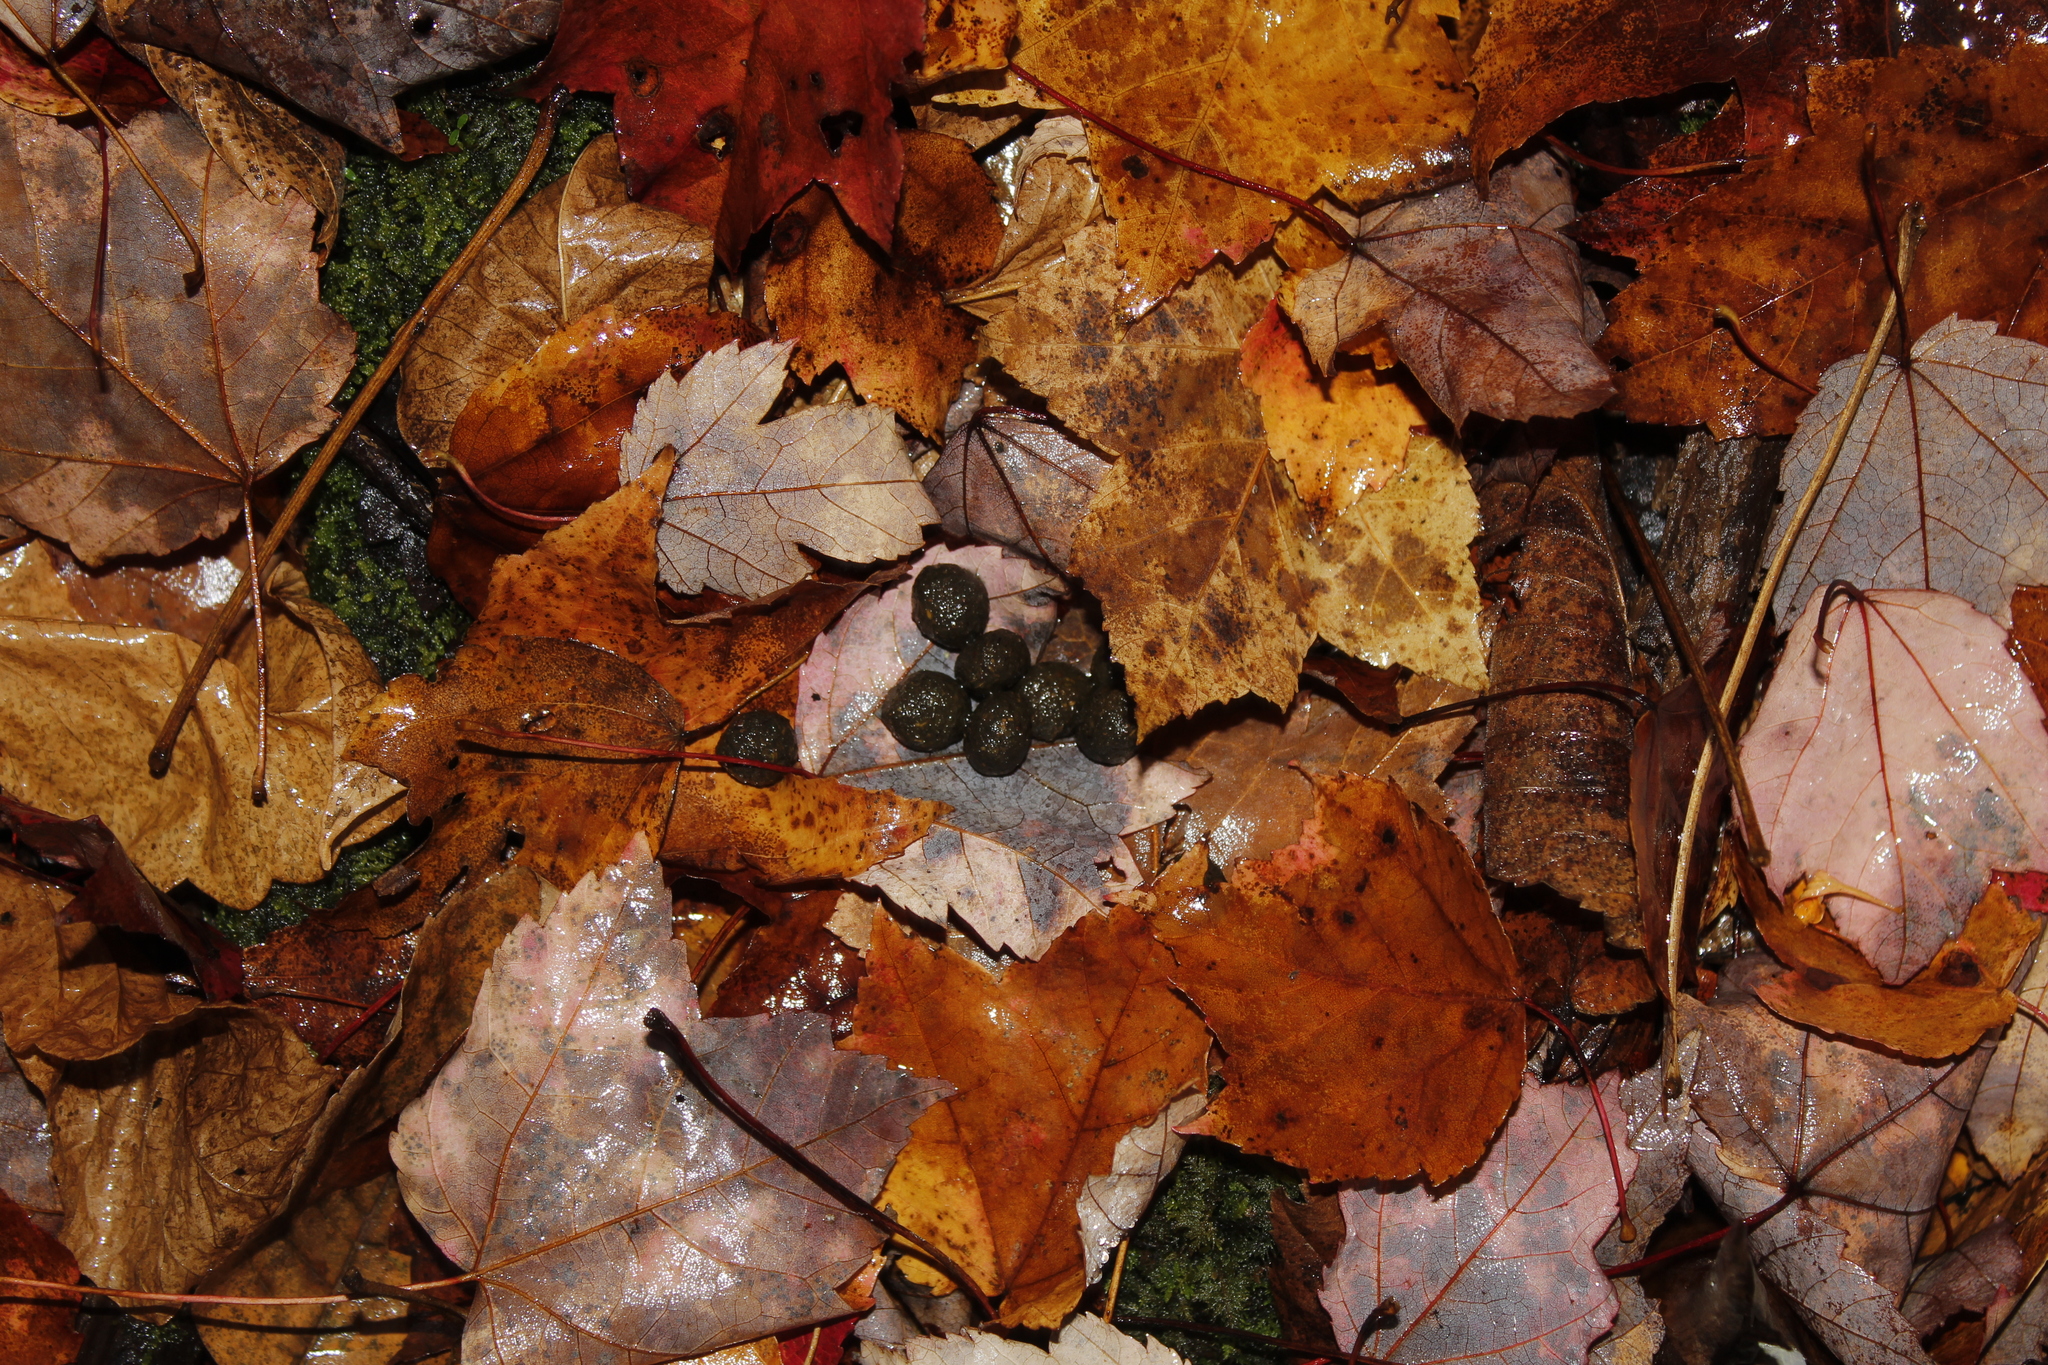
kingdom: Animalia
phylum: Chordata
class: Mammalia
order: Artiodactyla
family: Cervidae
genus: Odocoileus
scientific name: Odocoileus virginianus
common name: White-tailed deer
